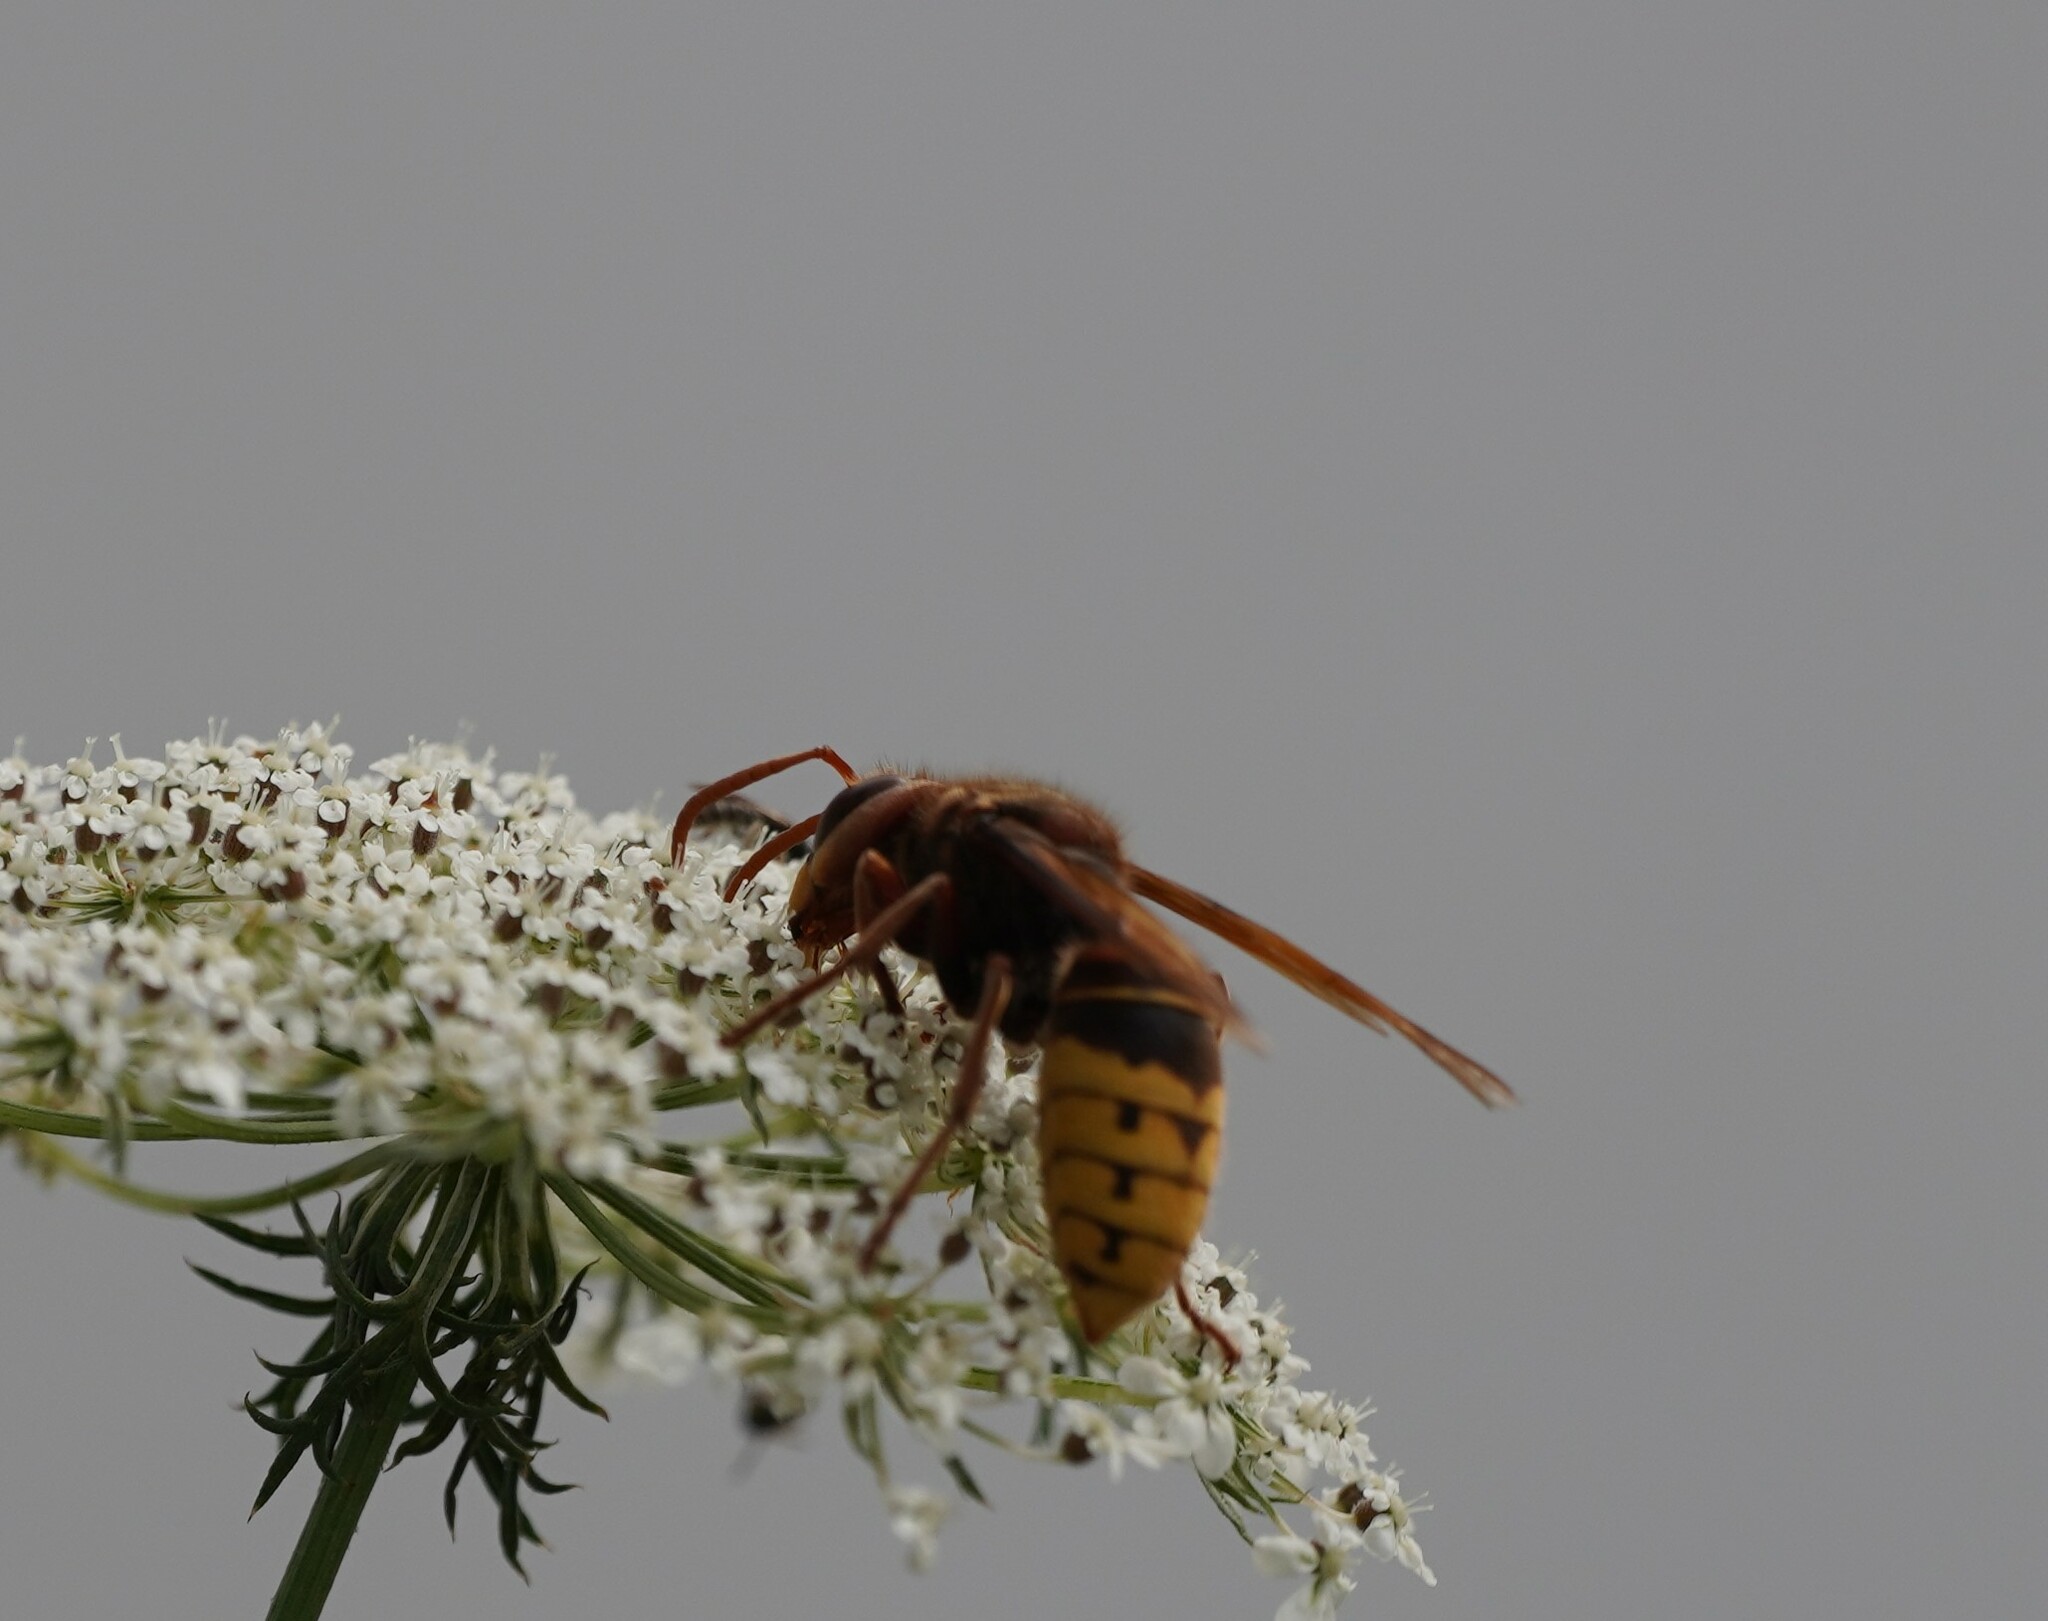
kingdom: Animalia
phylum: Arthropoda
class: Insecta
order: Hymenoptera
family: Vespidae
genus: Vespa
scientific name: Vespa crabro
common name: Hornet
